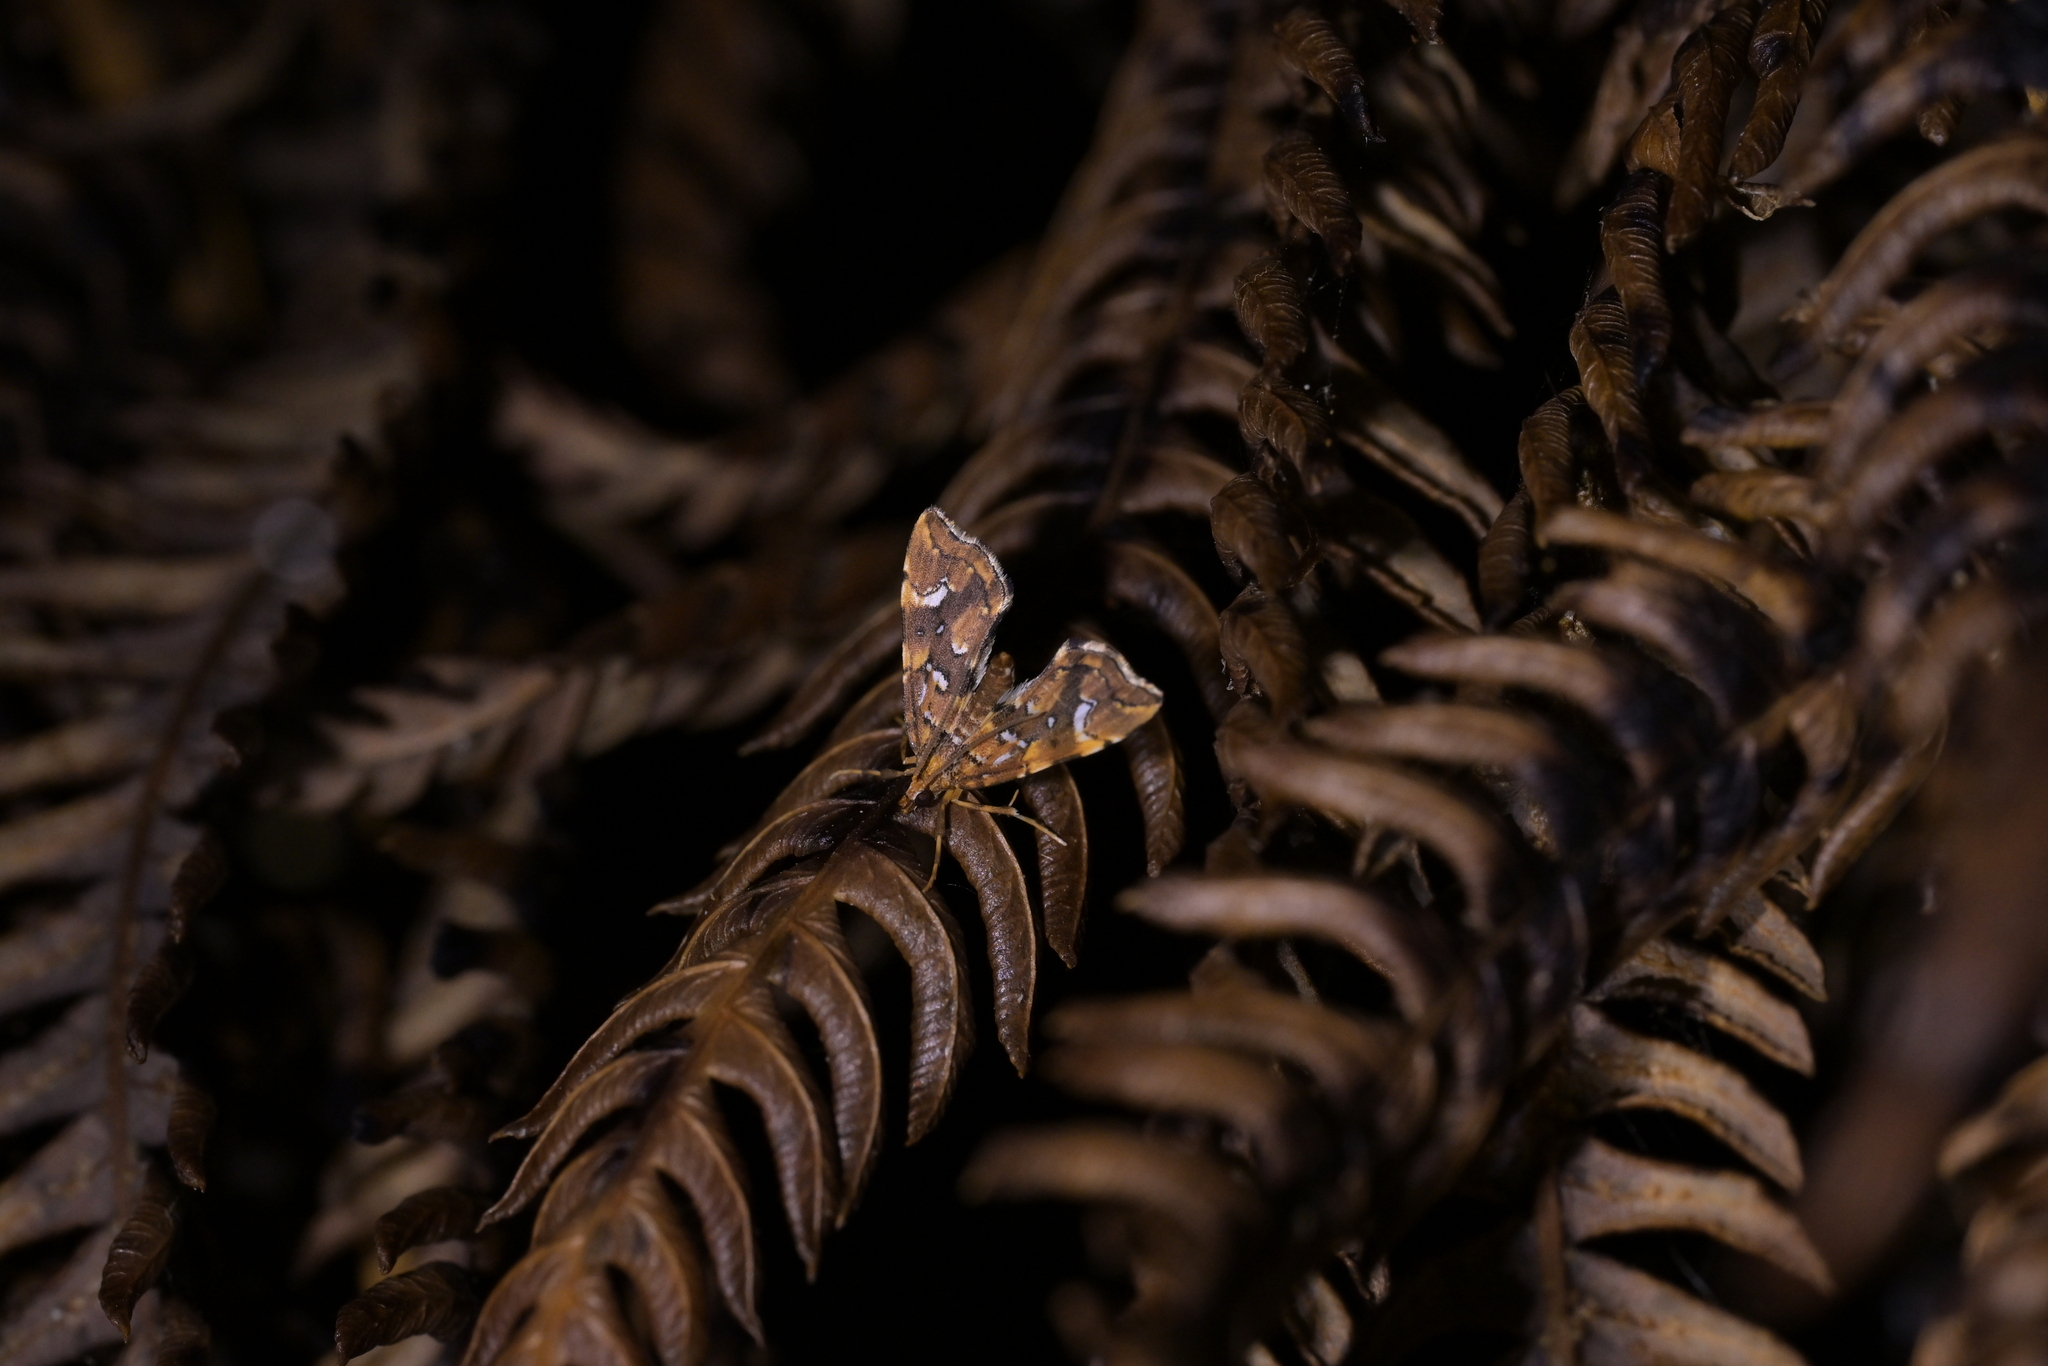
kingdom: Animalia
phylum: Arthropoda
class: Insecta
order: Lepidoptera
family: Pyralidae
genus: Musotima
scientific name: Musotima nitidalis
